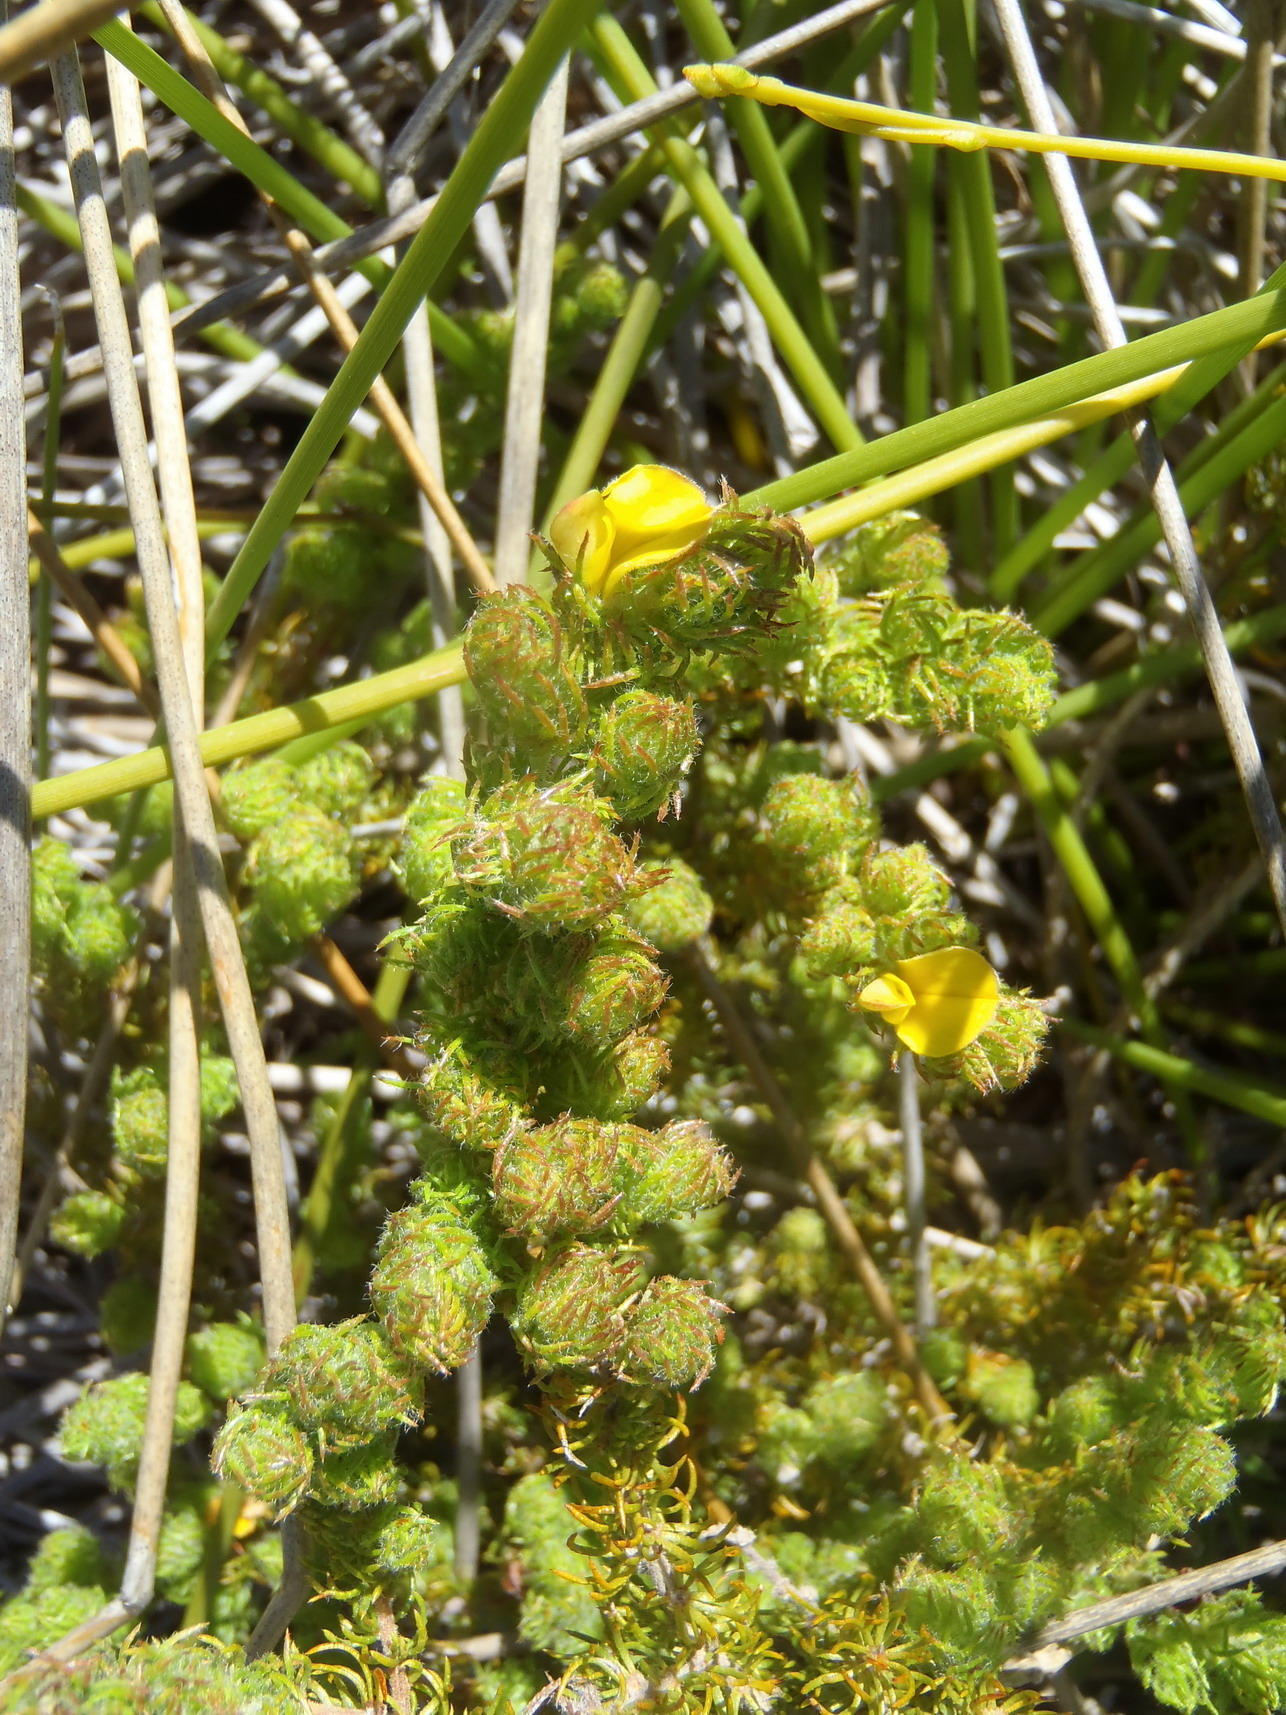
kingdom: Plantae
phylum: Tracheophyta
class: Magnoliopsida
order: Fabales
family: Fabaceae
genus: Aspalathus
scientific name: Aspalathus asparagoides
